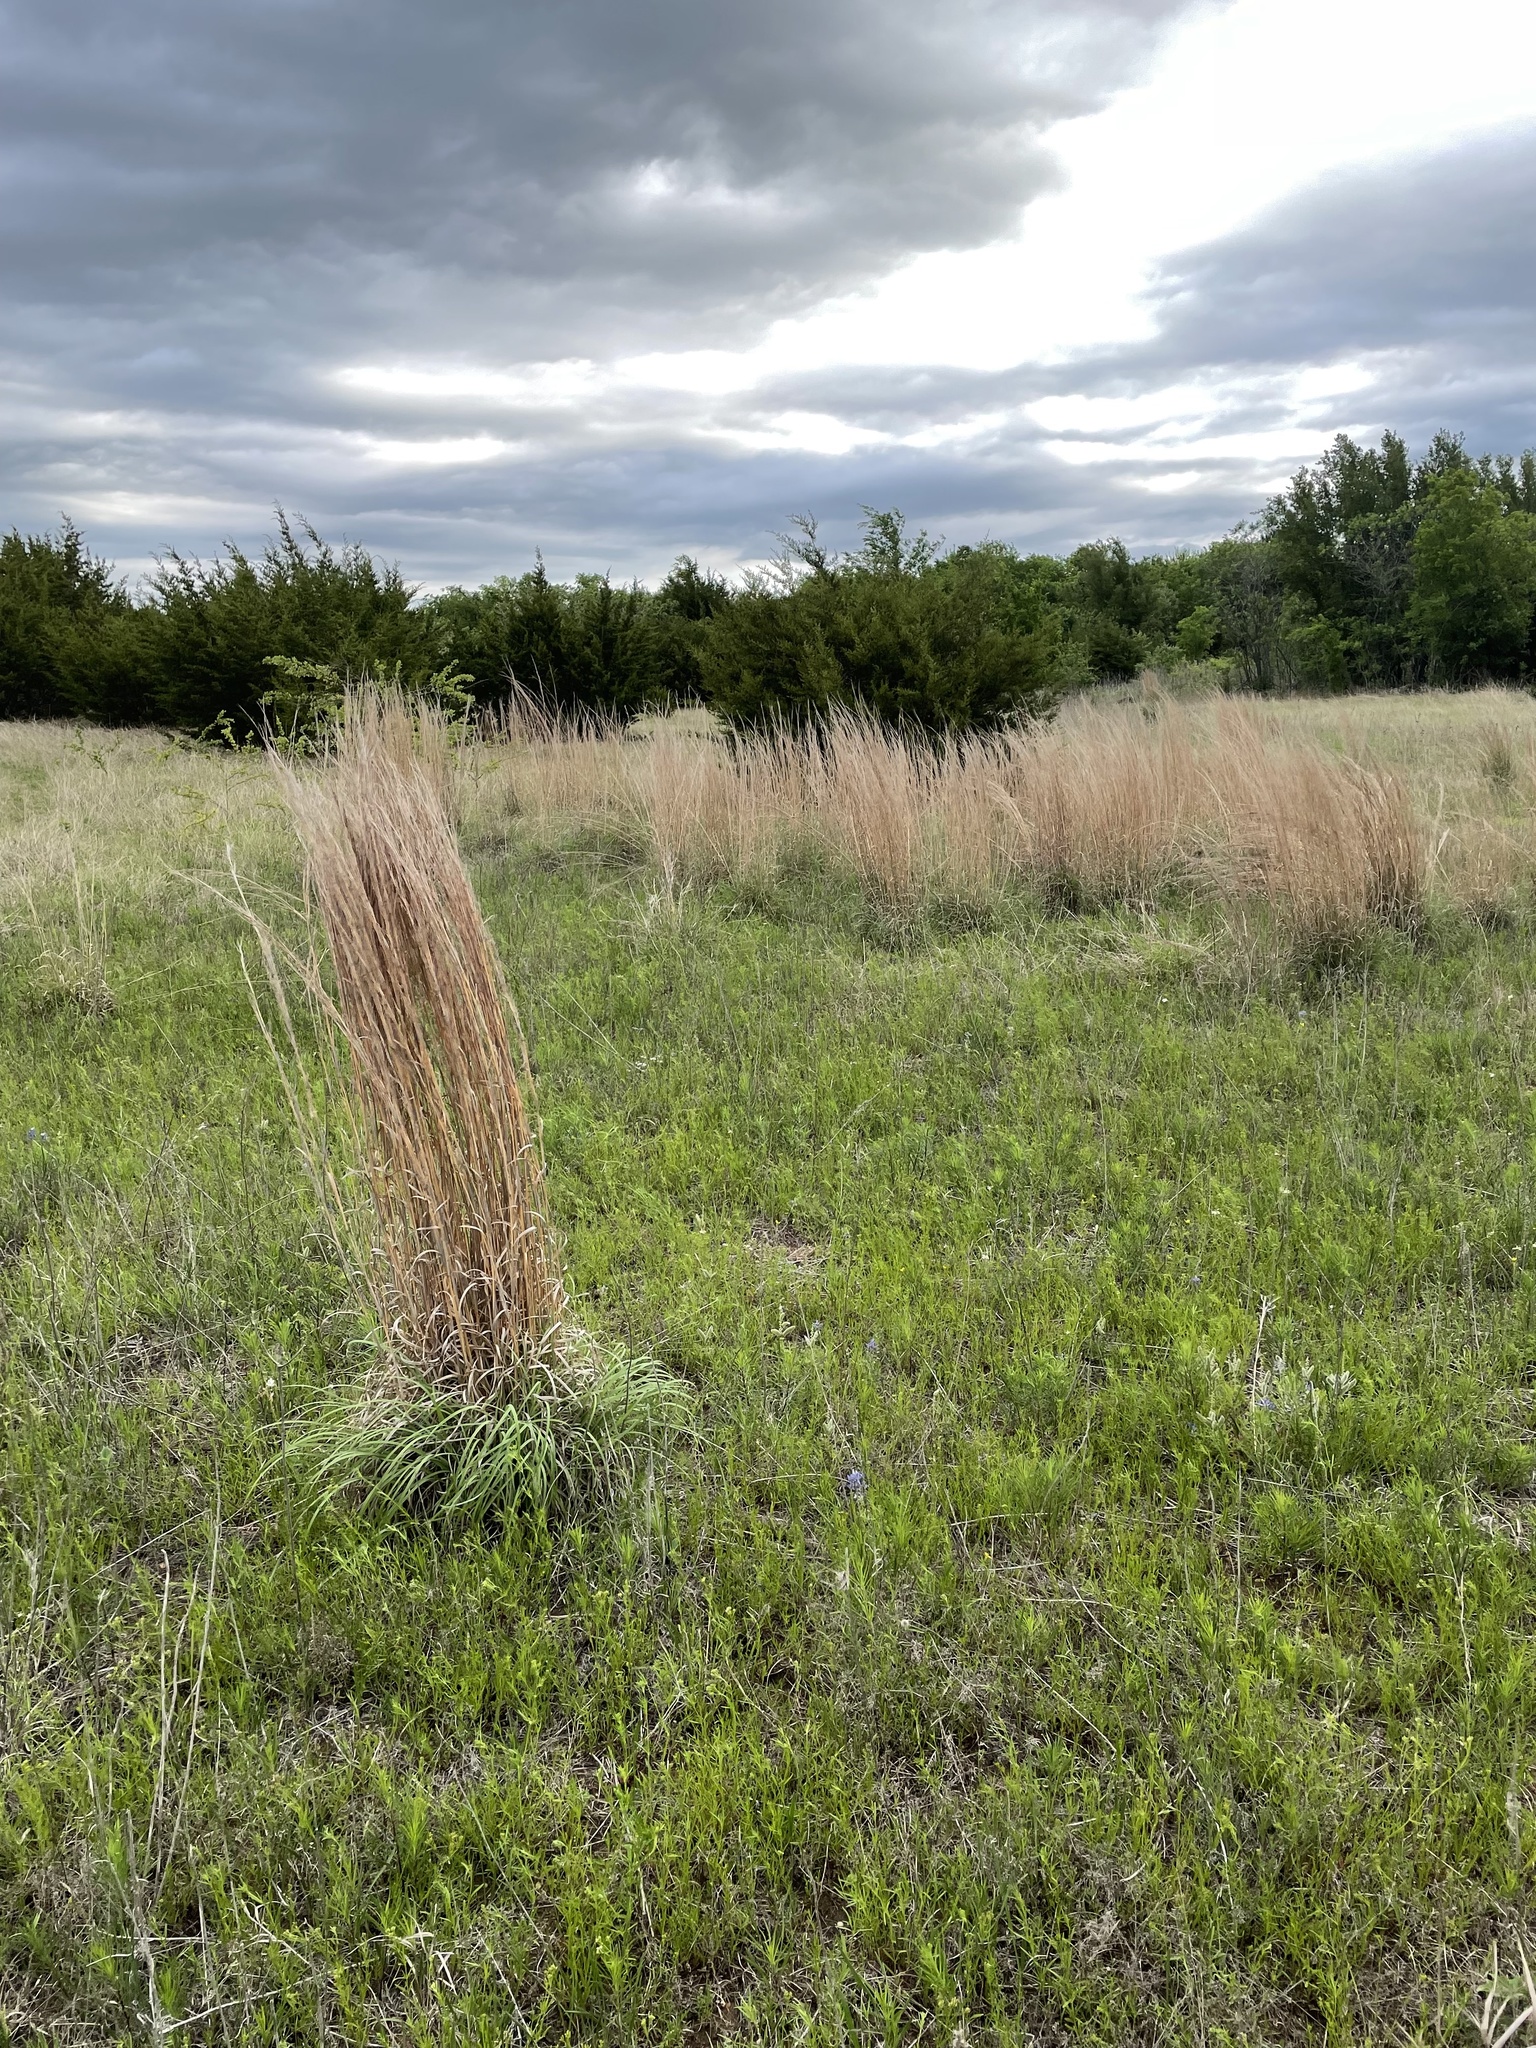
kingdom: Plantae
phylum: Tracheophyta
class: Liliopsida
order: Poales
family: Poaceae
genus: Schizachyrium
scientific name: Schizachyrium scoparium
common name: Little bluestem
